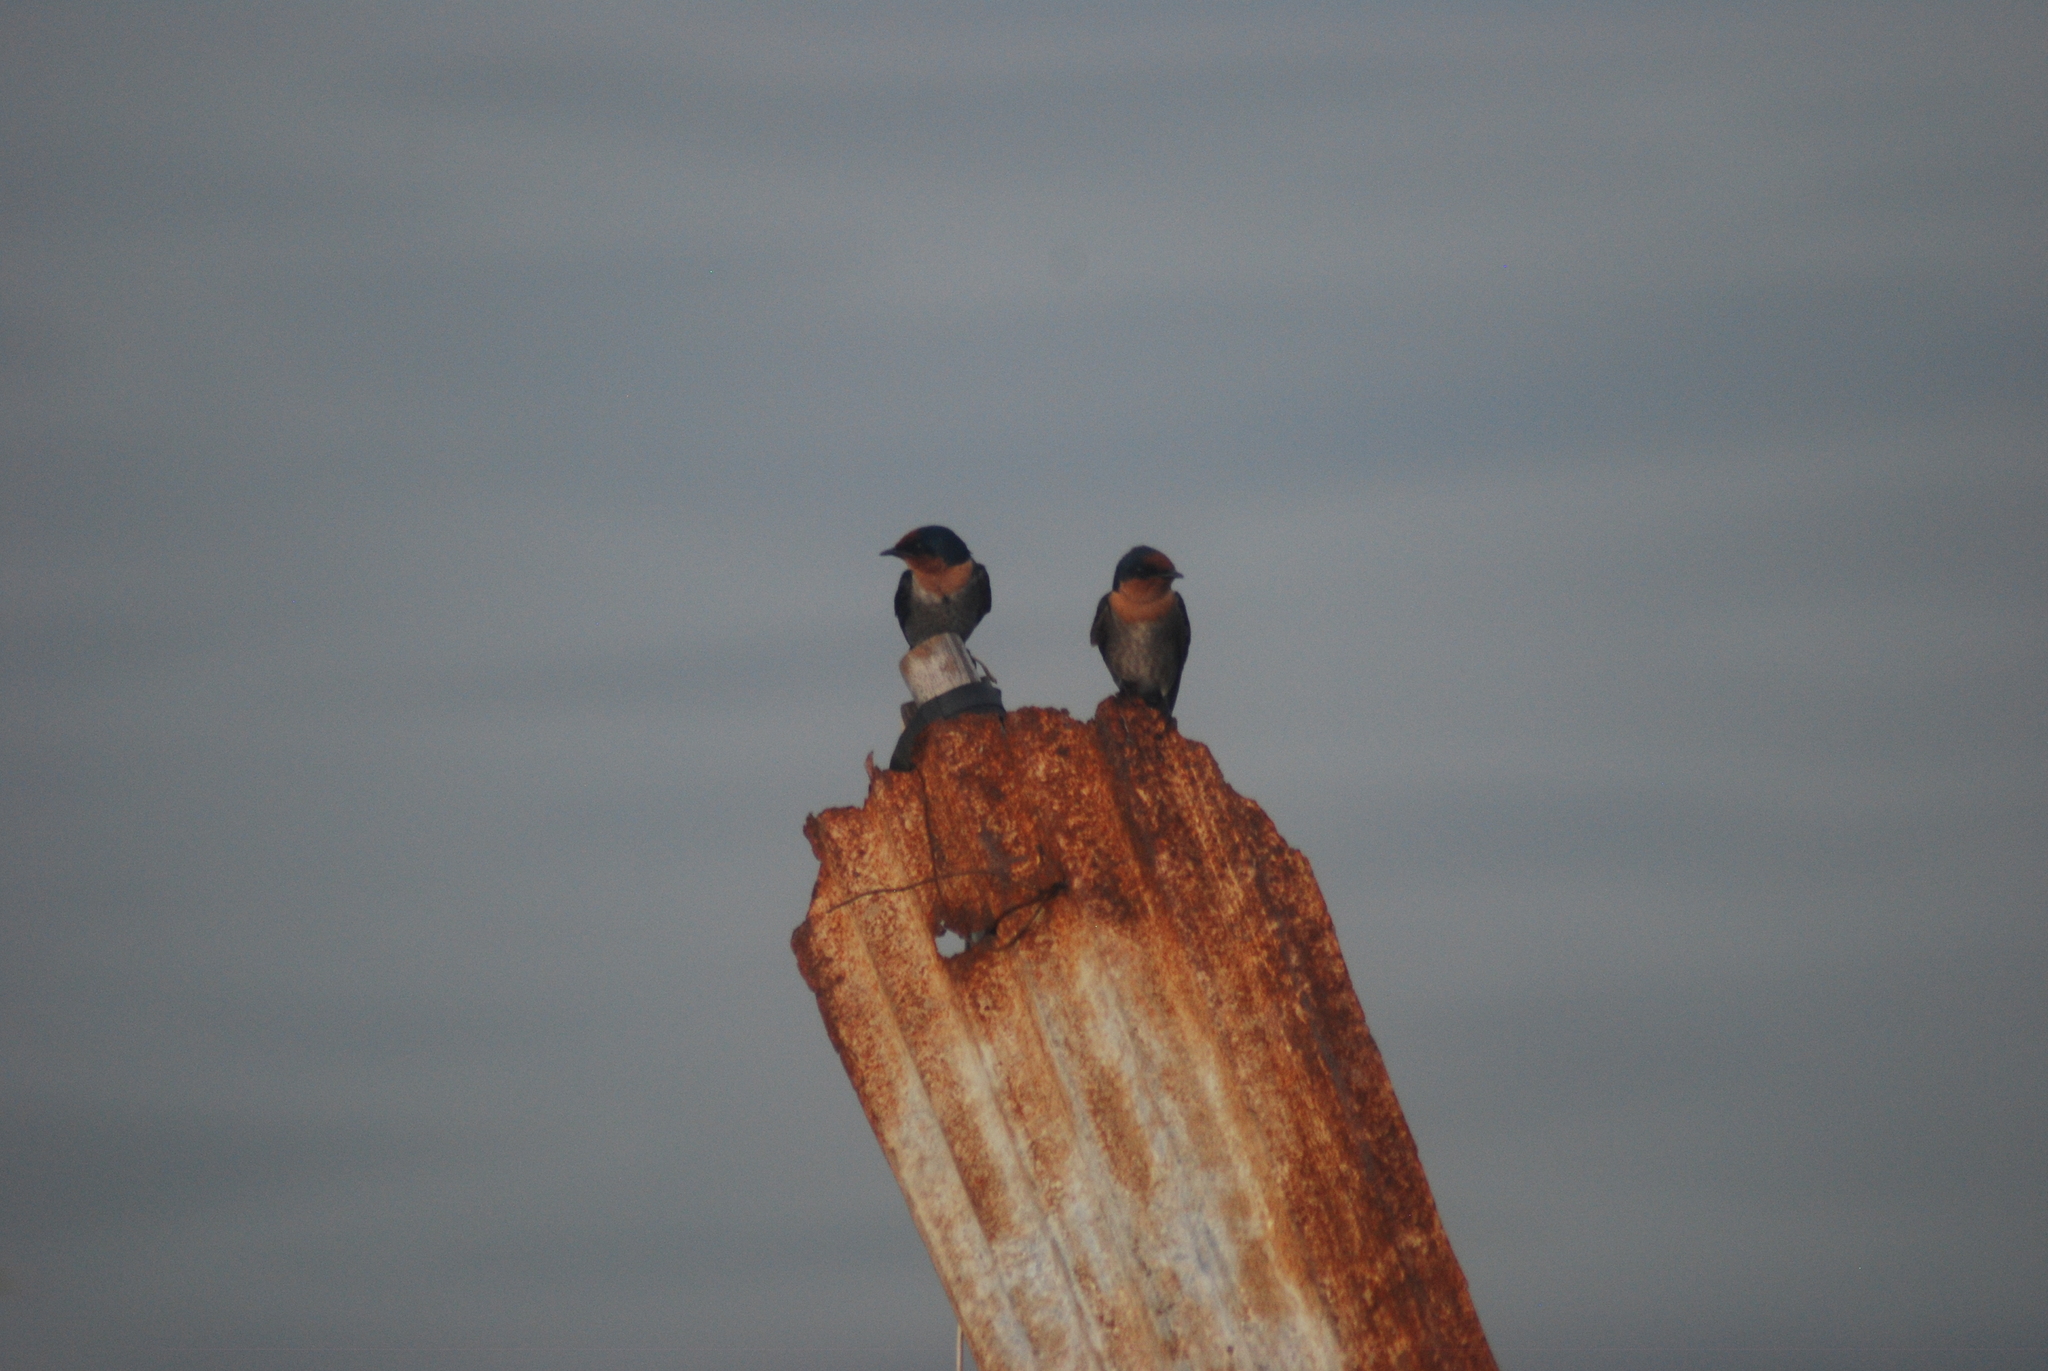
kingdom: Animalia
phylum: Chordata
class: Aves
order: Passeriformes
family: Hirundinidae
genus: Hirundo
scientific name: Hirundo tahitica
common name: Pacific swallow
